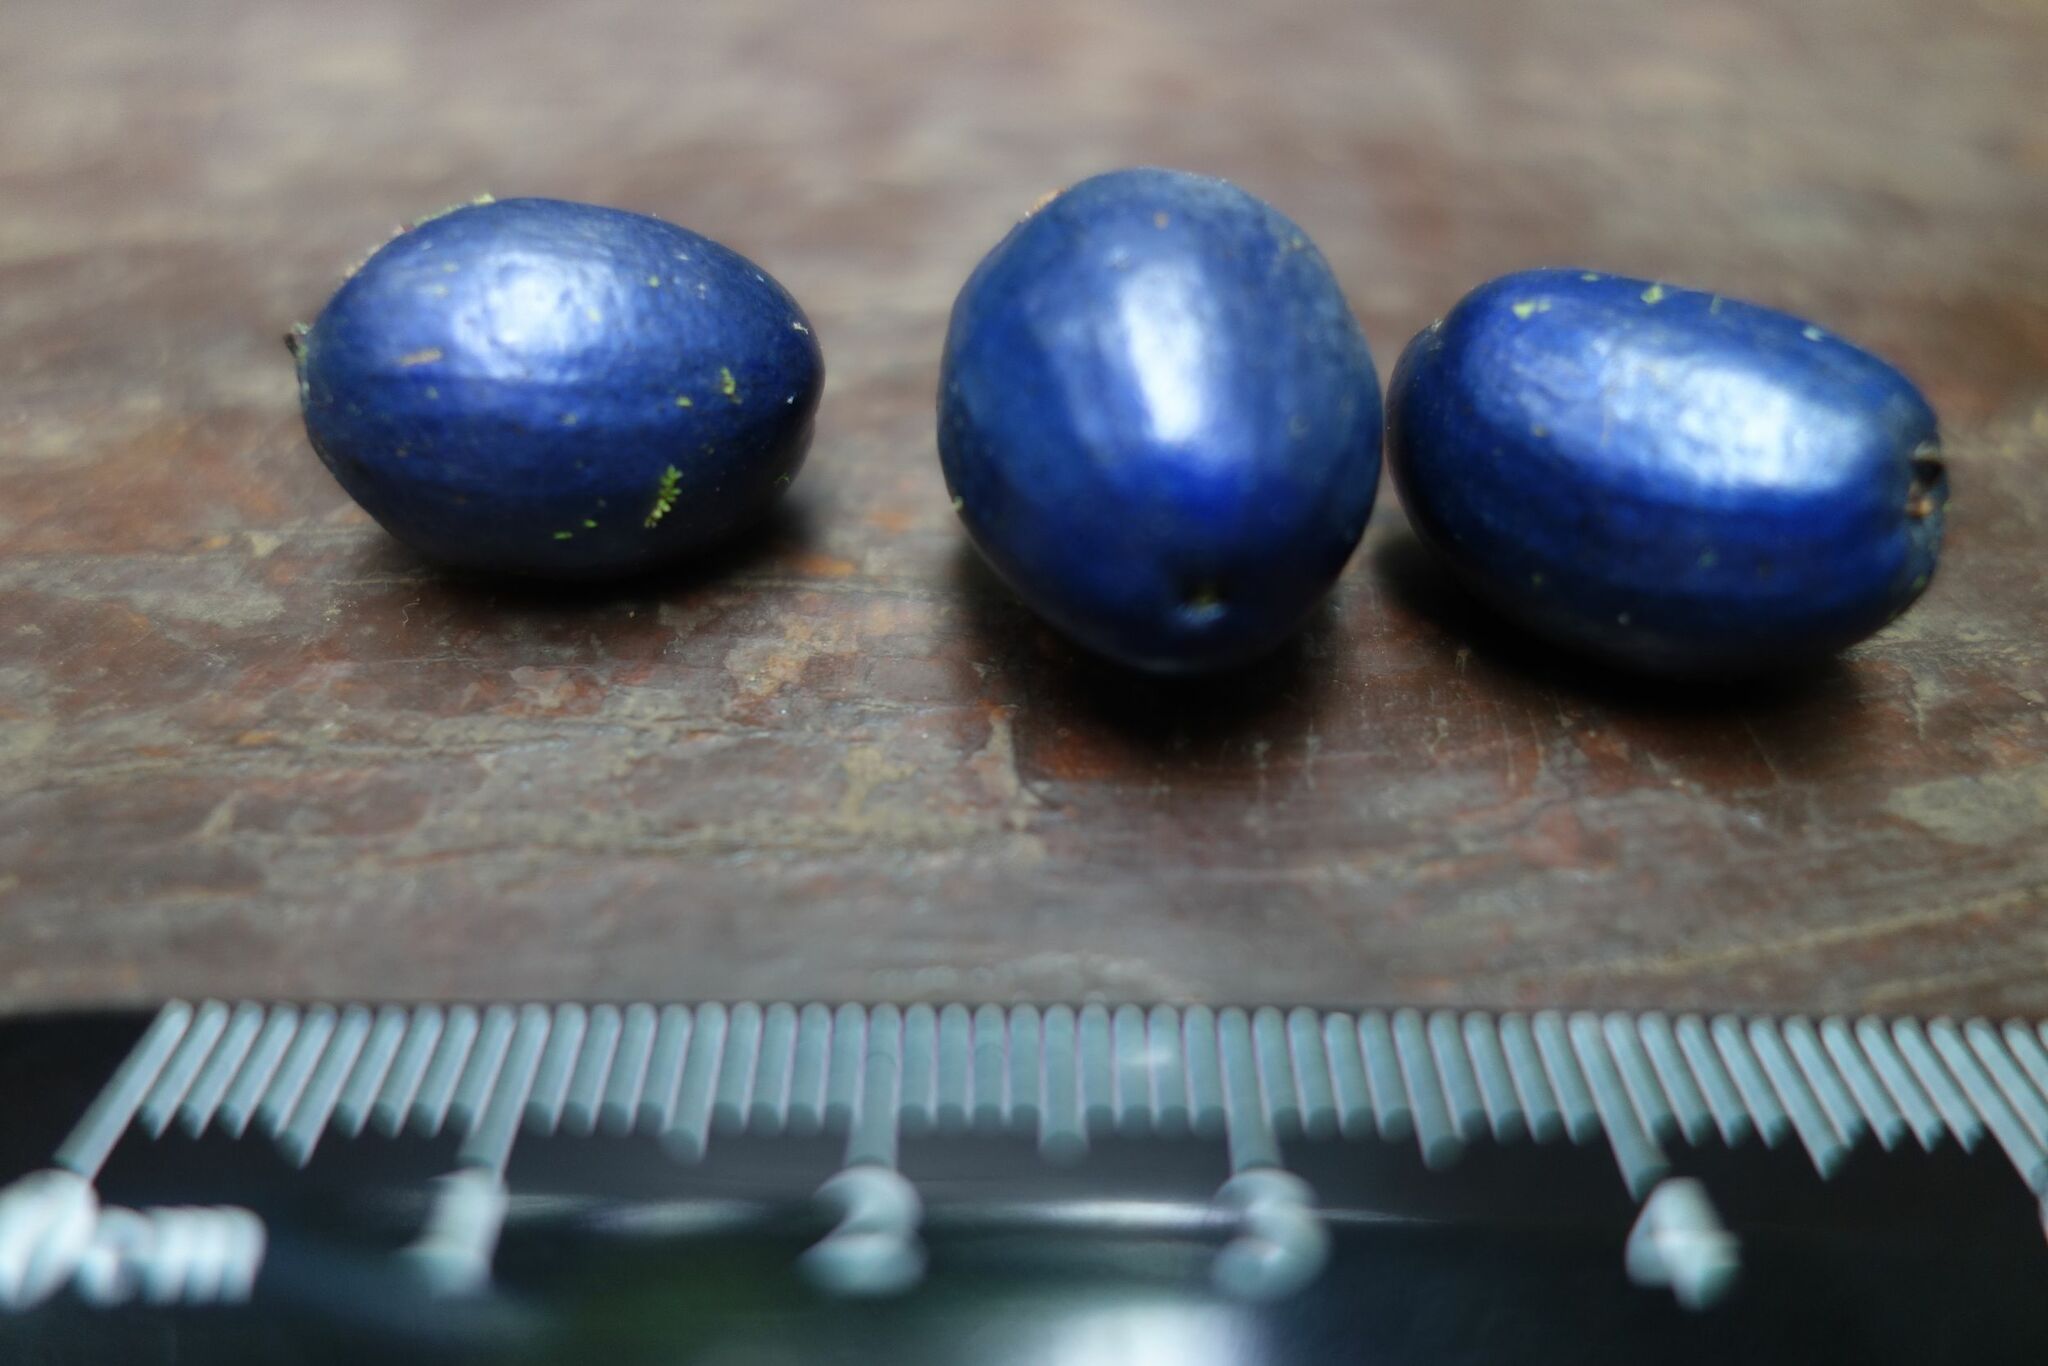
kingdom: Plantae
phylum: Tracheophyta
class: Magnoliopsida
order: Apiales
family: Myodocarpaceae
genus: Delarbrea
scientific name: Delarbrea michieana
